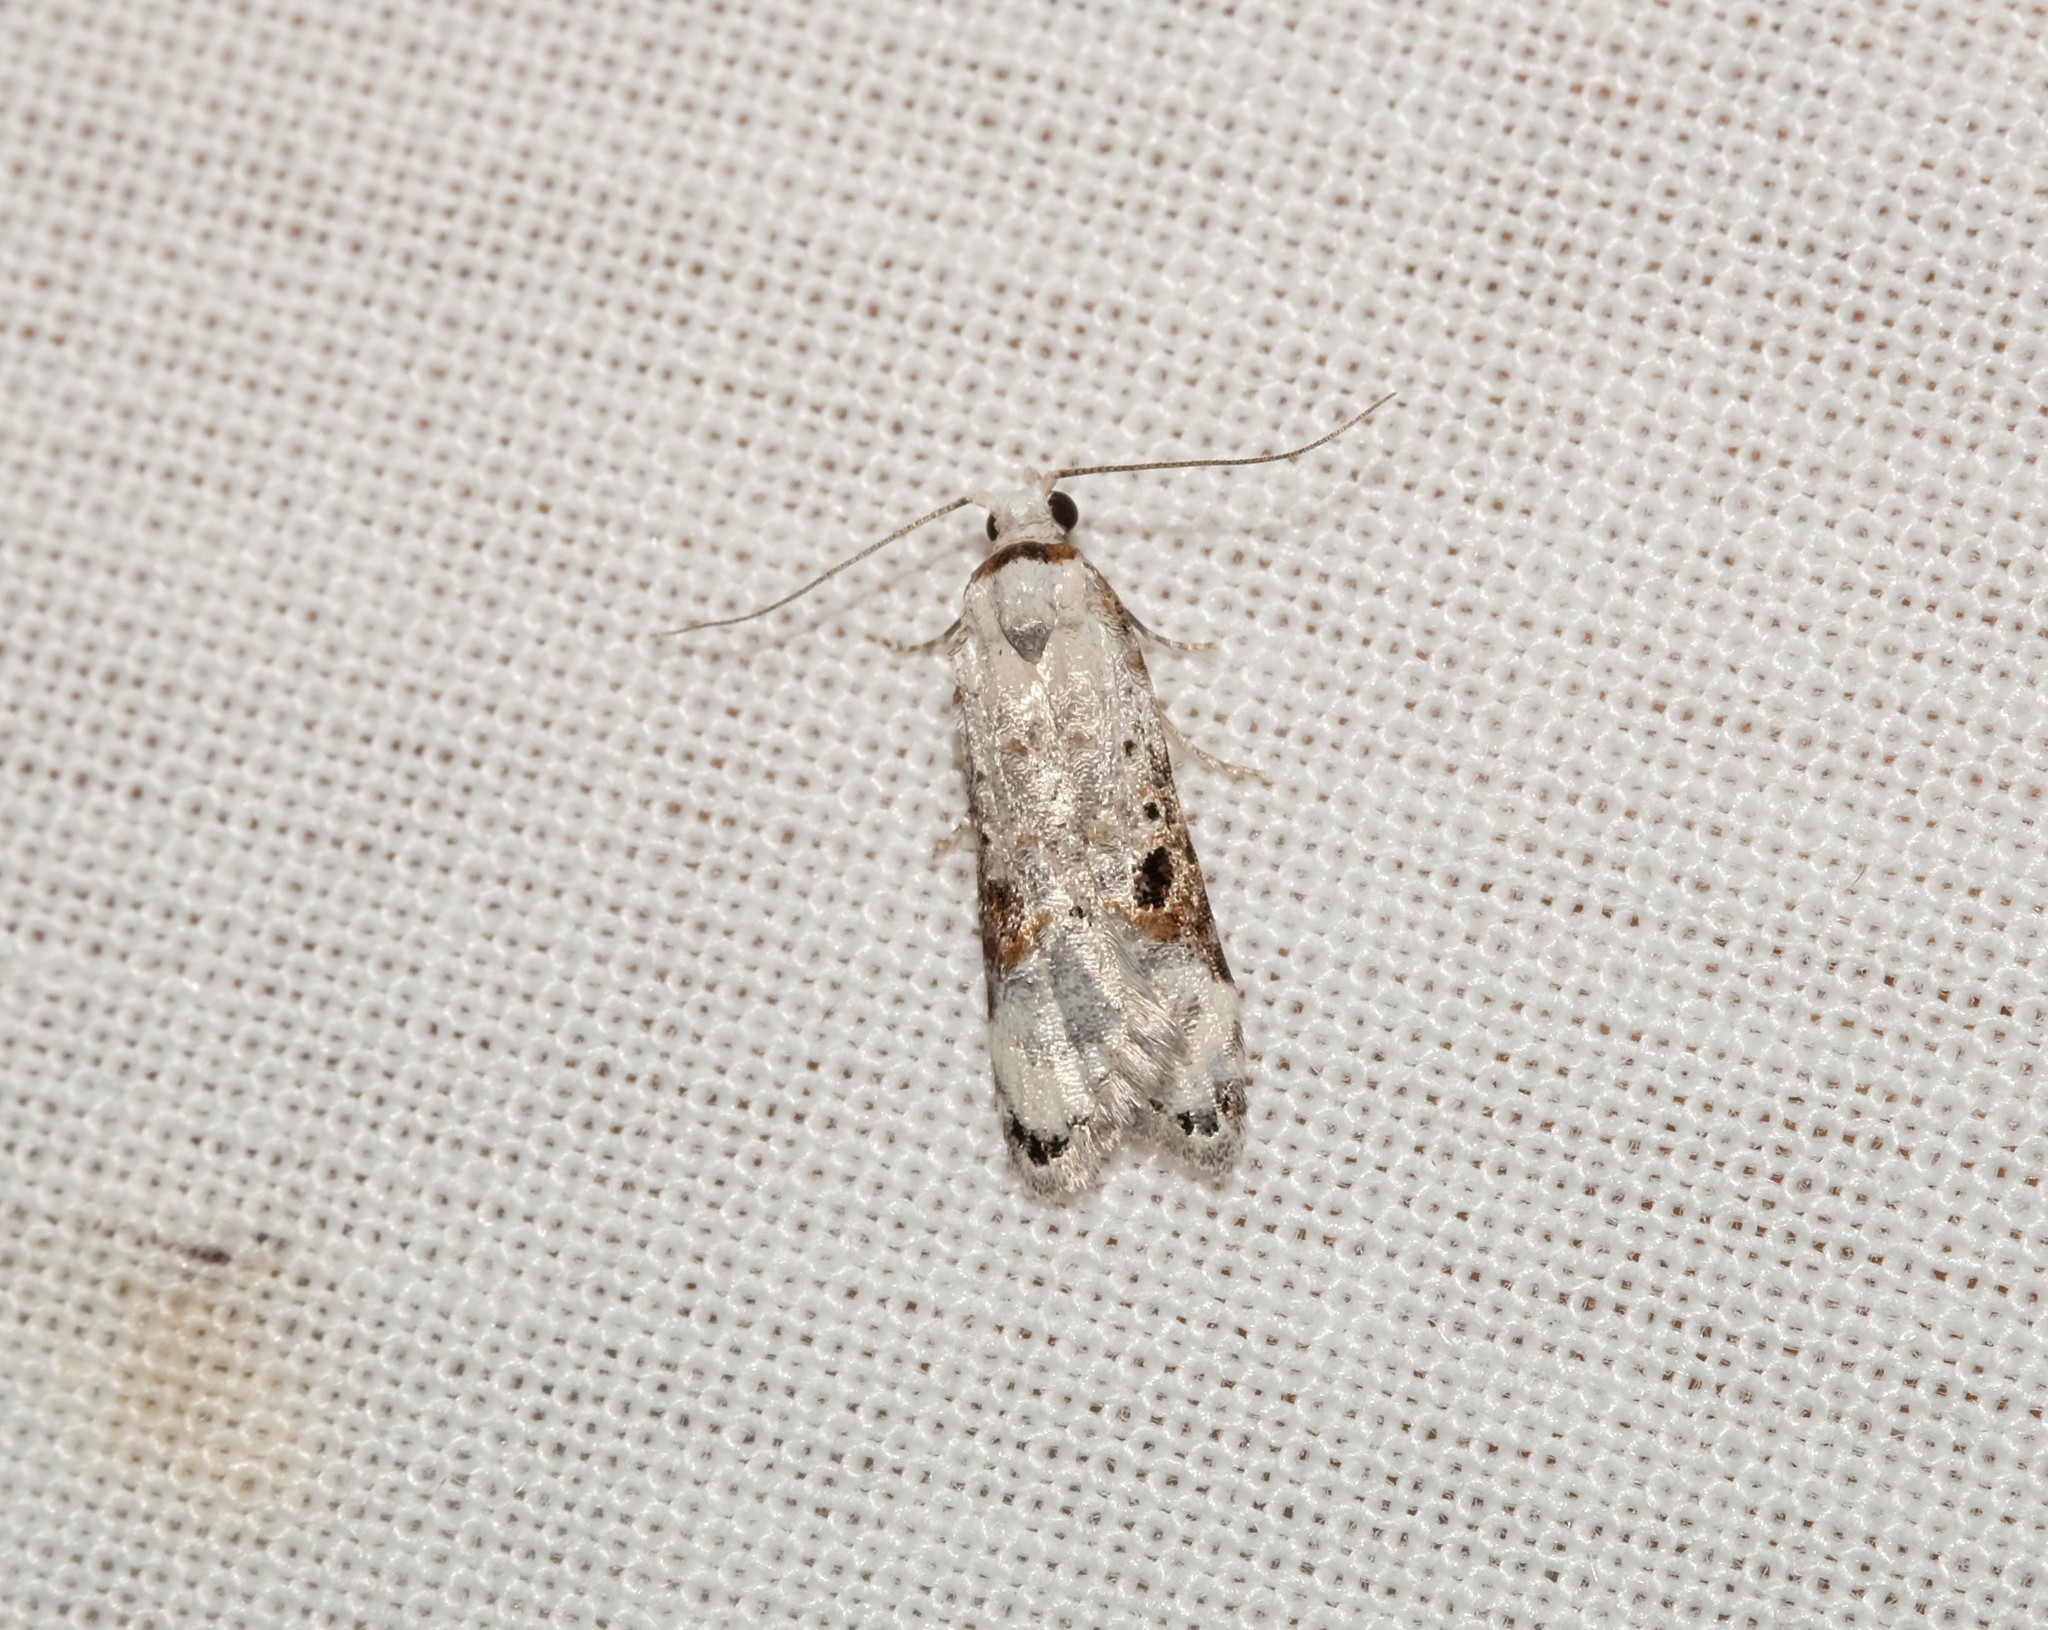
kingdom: Animalia
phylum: Arthropoda
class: Insecta
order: Lepidoptera
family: Carposinidae
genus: Sosineura
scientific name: Sosineura mimica
